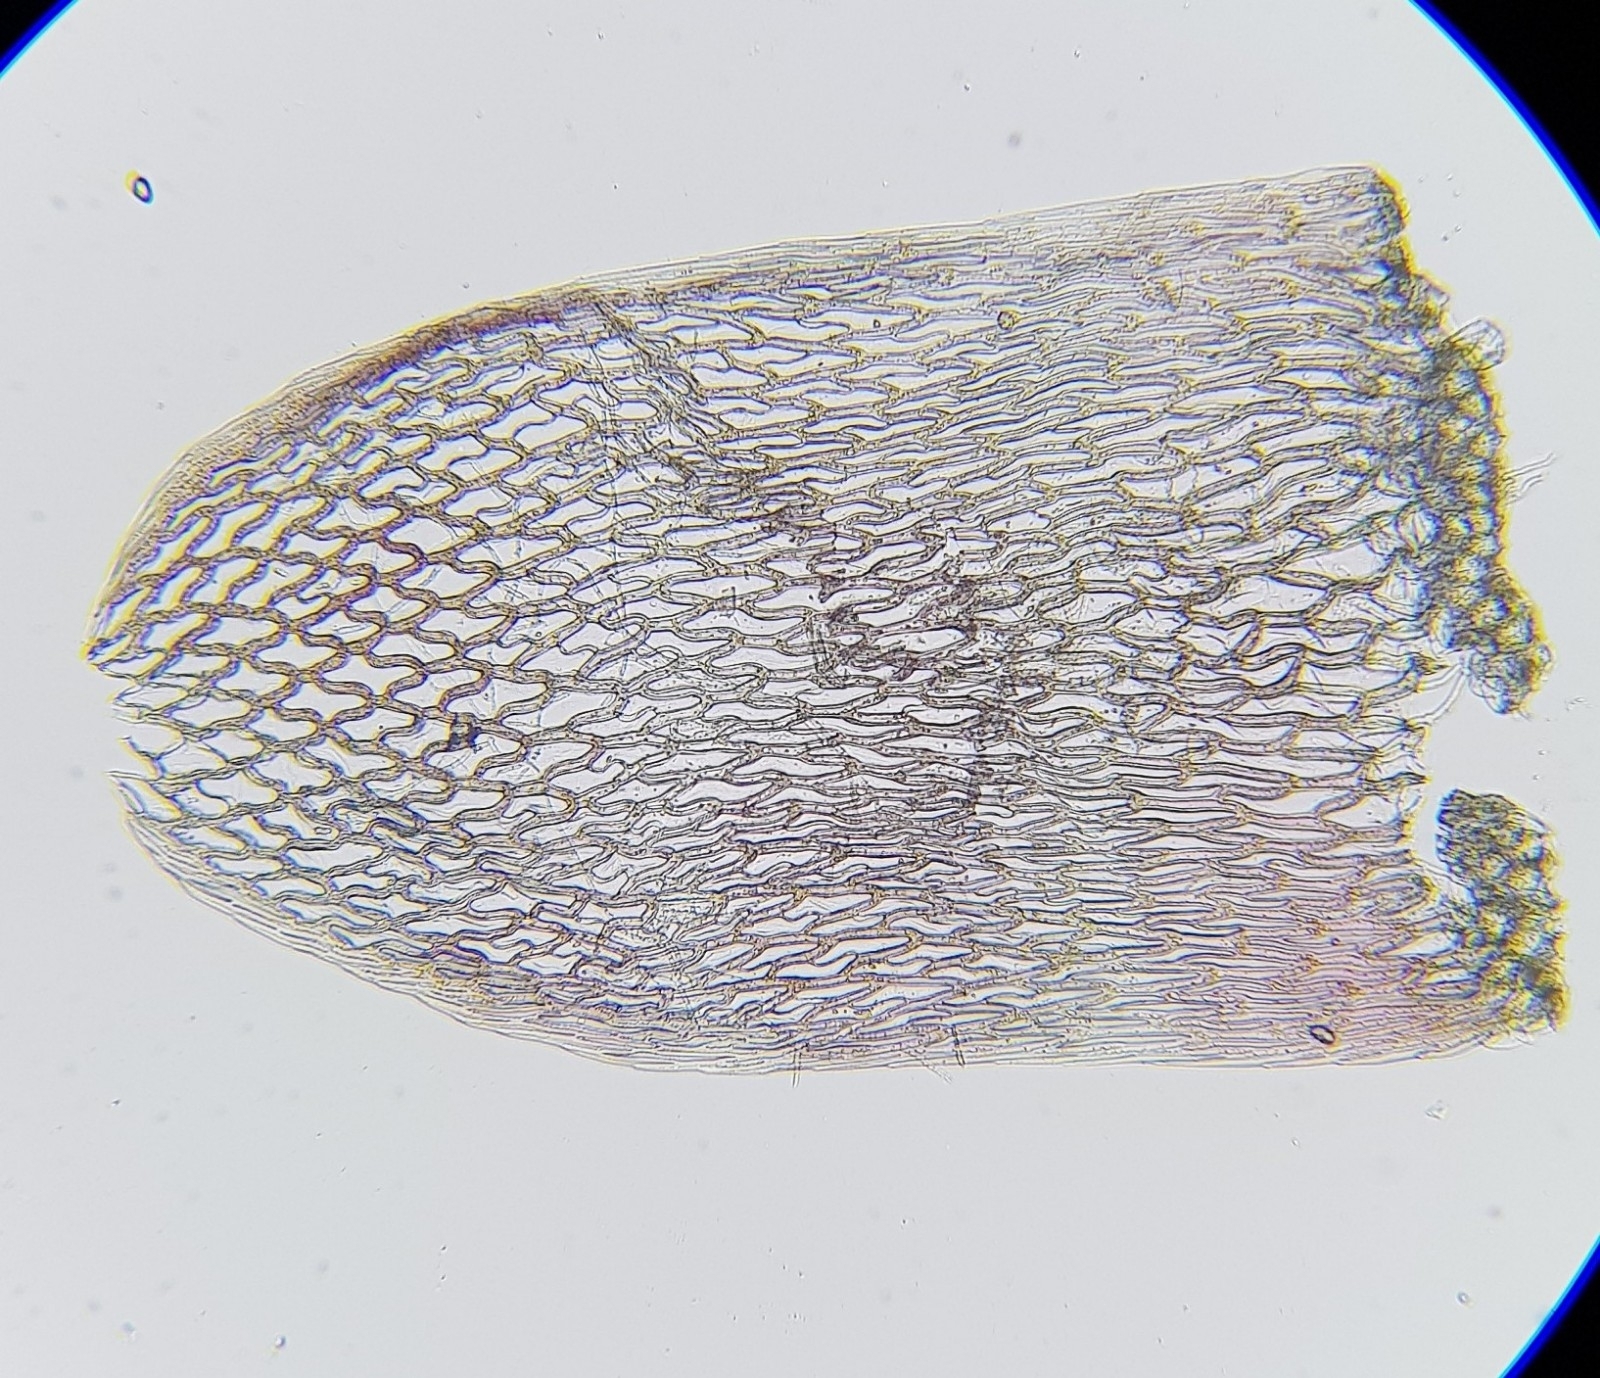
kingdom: Plantae
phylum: Bryophyta
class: Sphagnopsida
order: Sphagnales
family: Sphagnaceae
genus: Sphagnum
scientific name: Sphagnum rubellum
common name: Red peat moss
